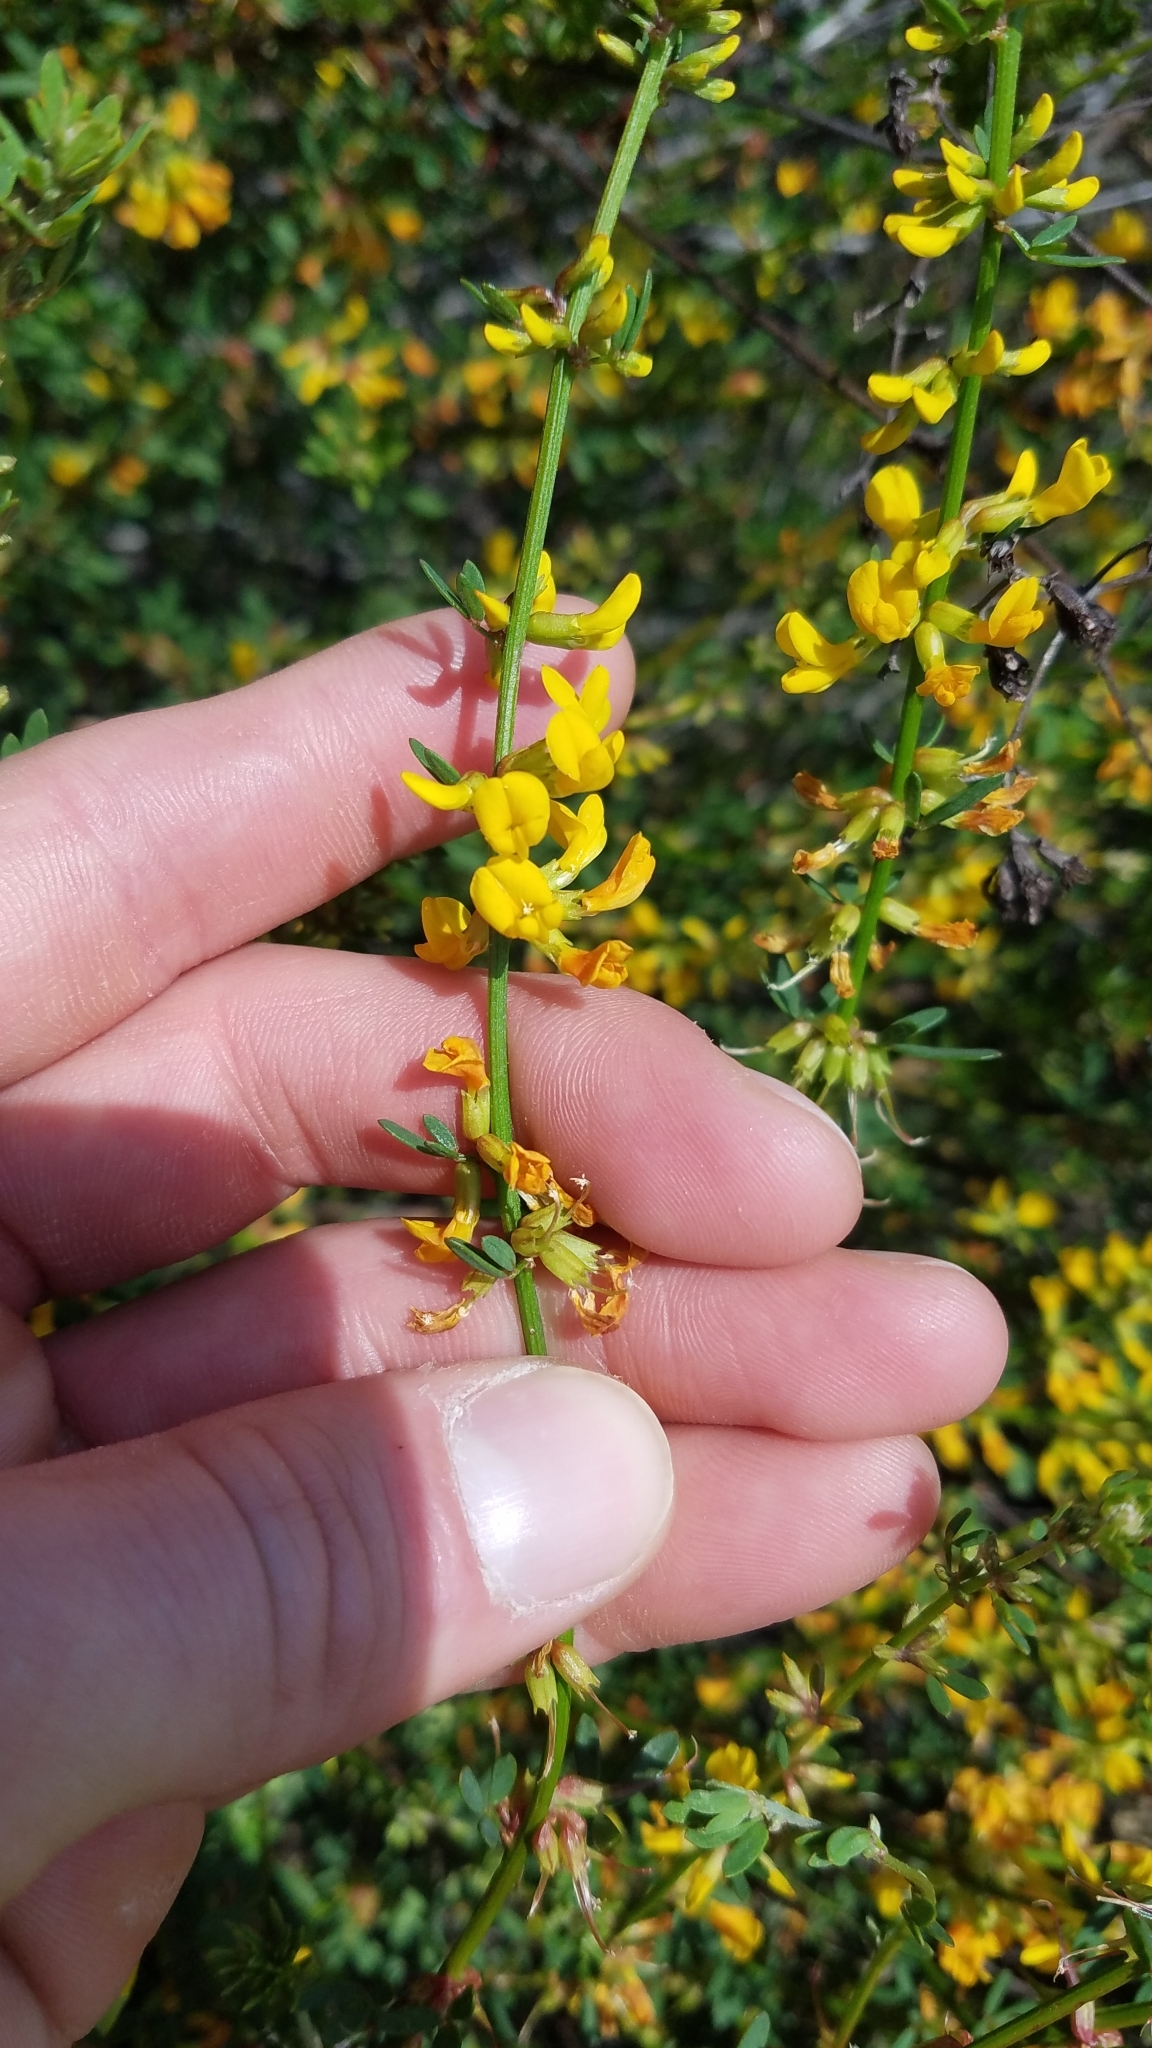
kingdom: Plantae
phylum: Tracheophyta
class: Magnoliopsida
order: Fabales
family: Fabaceae
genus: Acmispon
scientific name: Acmispon glaber
